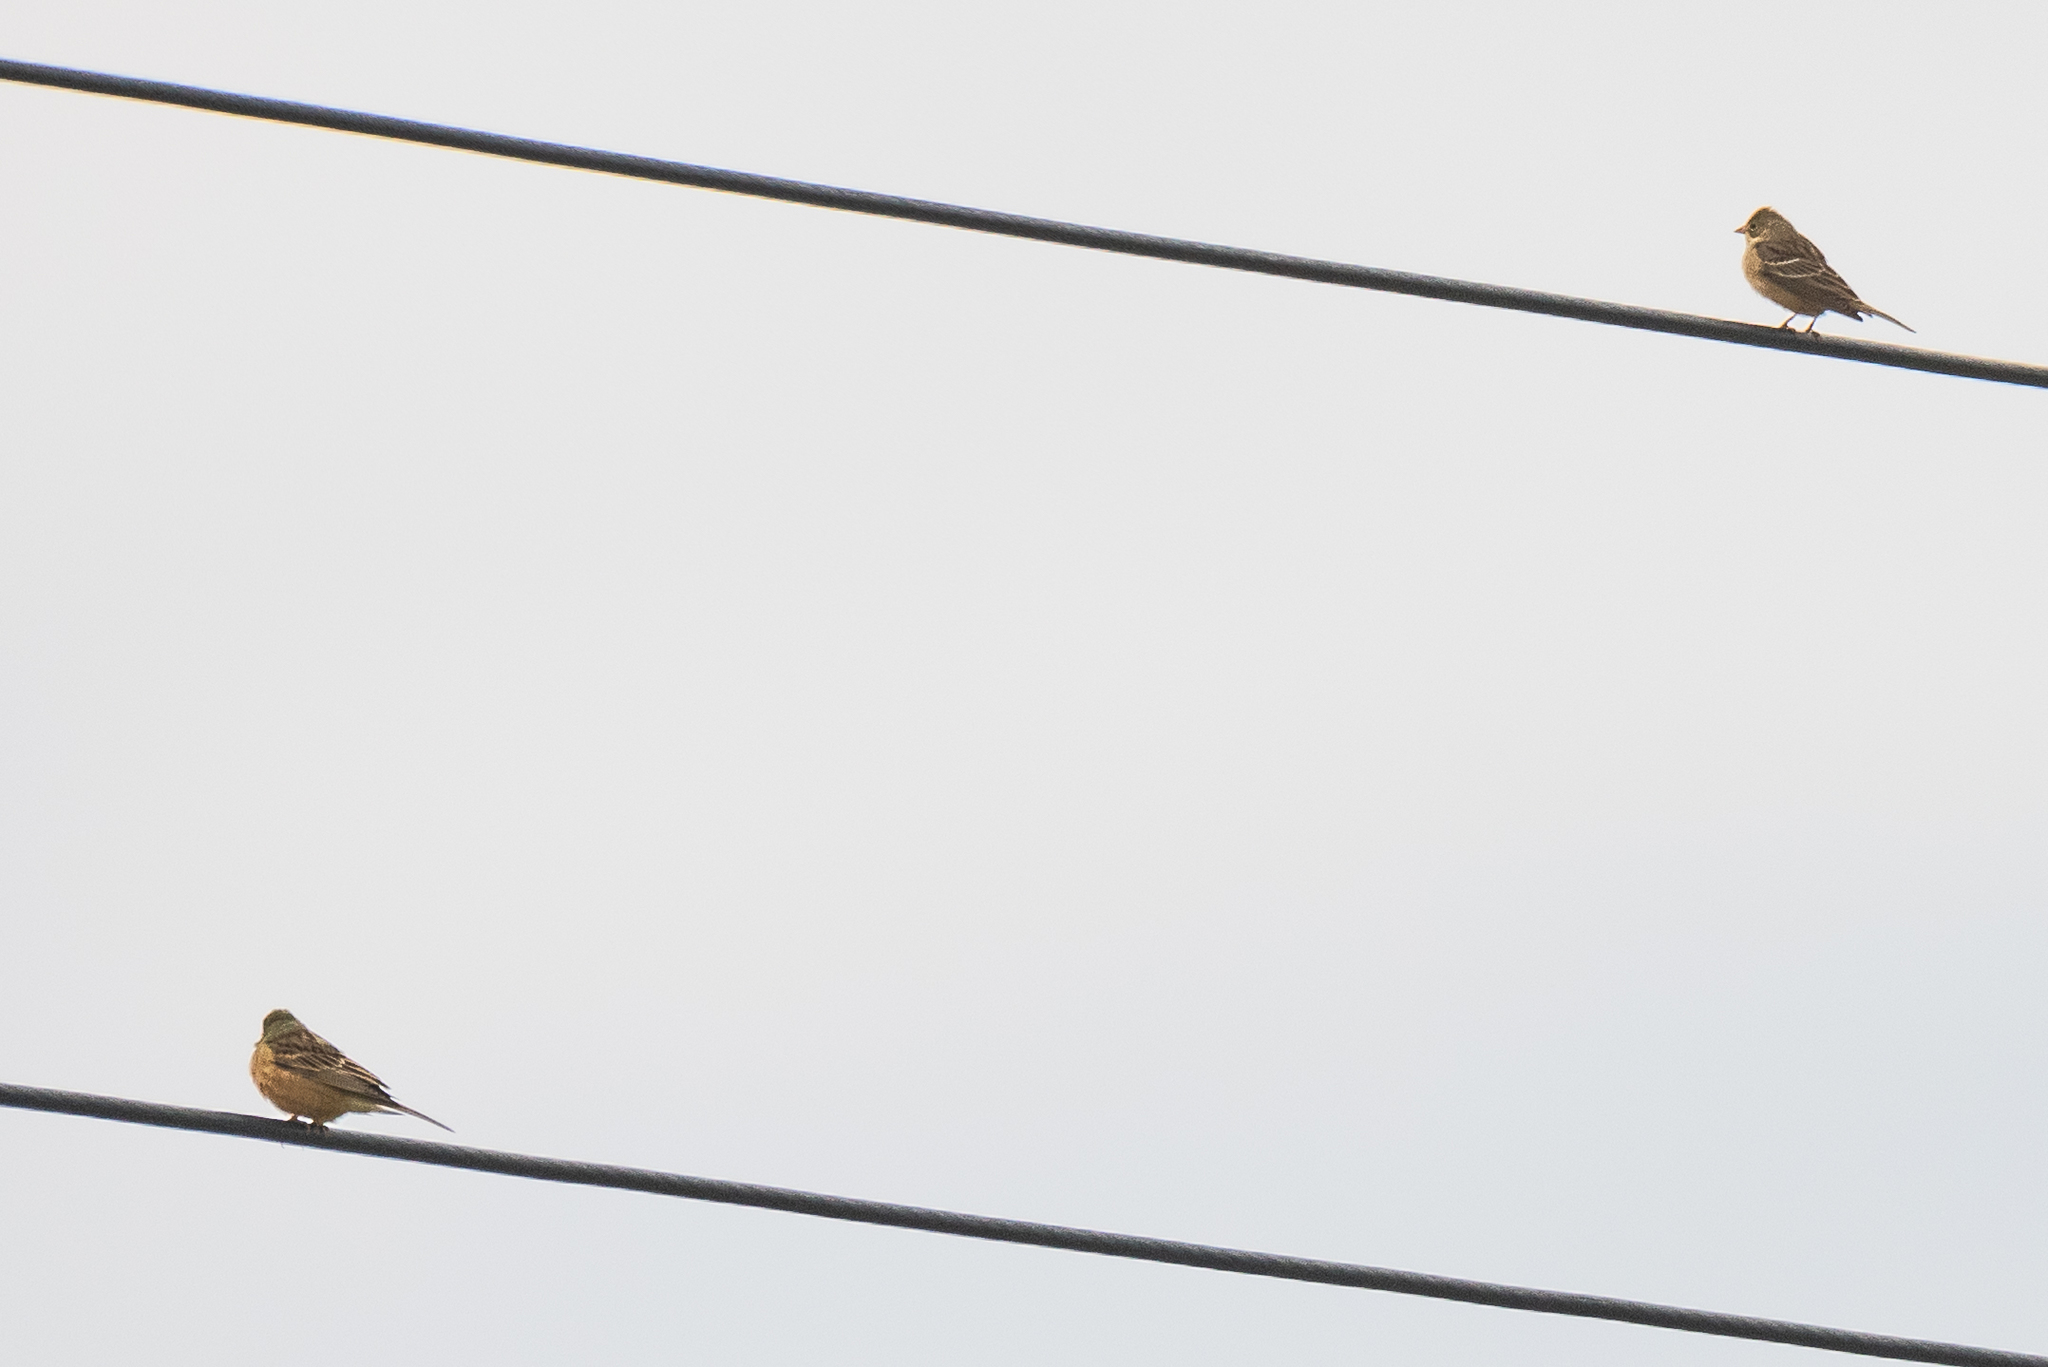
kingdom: Animalia
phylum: Chordata
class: Aves
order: Passeriformes
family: Emberizidae
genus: Emberiza
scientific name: Emberiza hortulana
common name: Ortolan bunting
